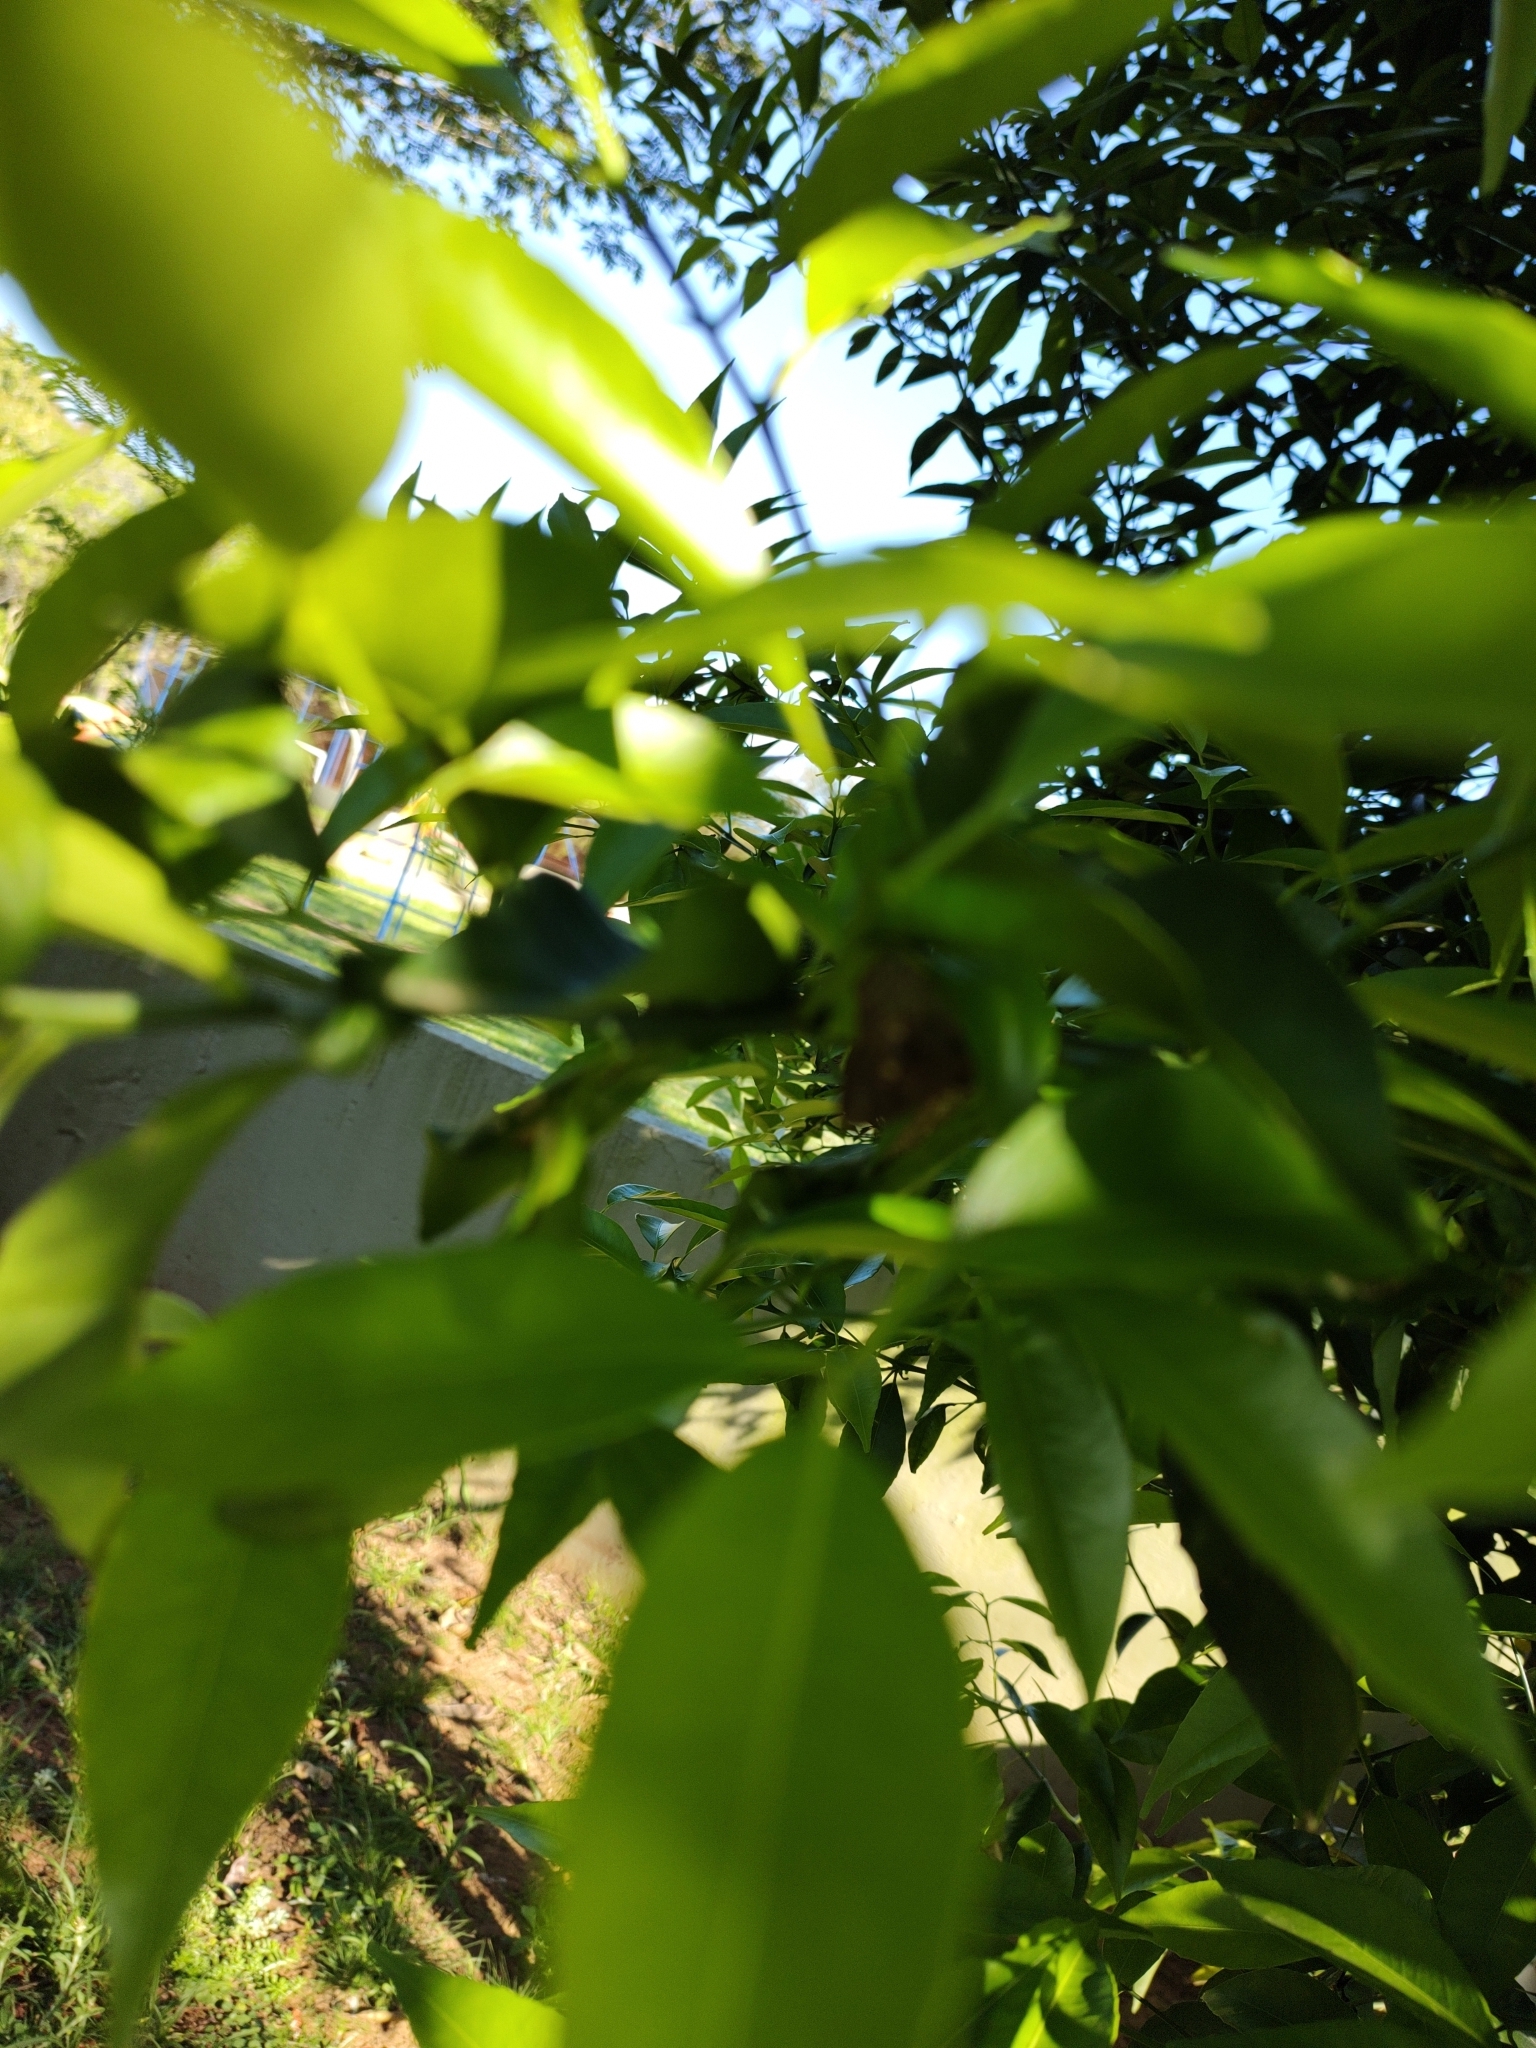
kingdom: Animalia
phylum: Arthropoda
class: Insecta
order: Lepidoptera
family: Lycaenidae
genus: Euselasia
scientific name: Euselasia eucerus
